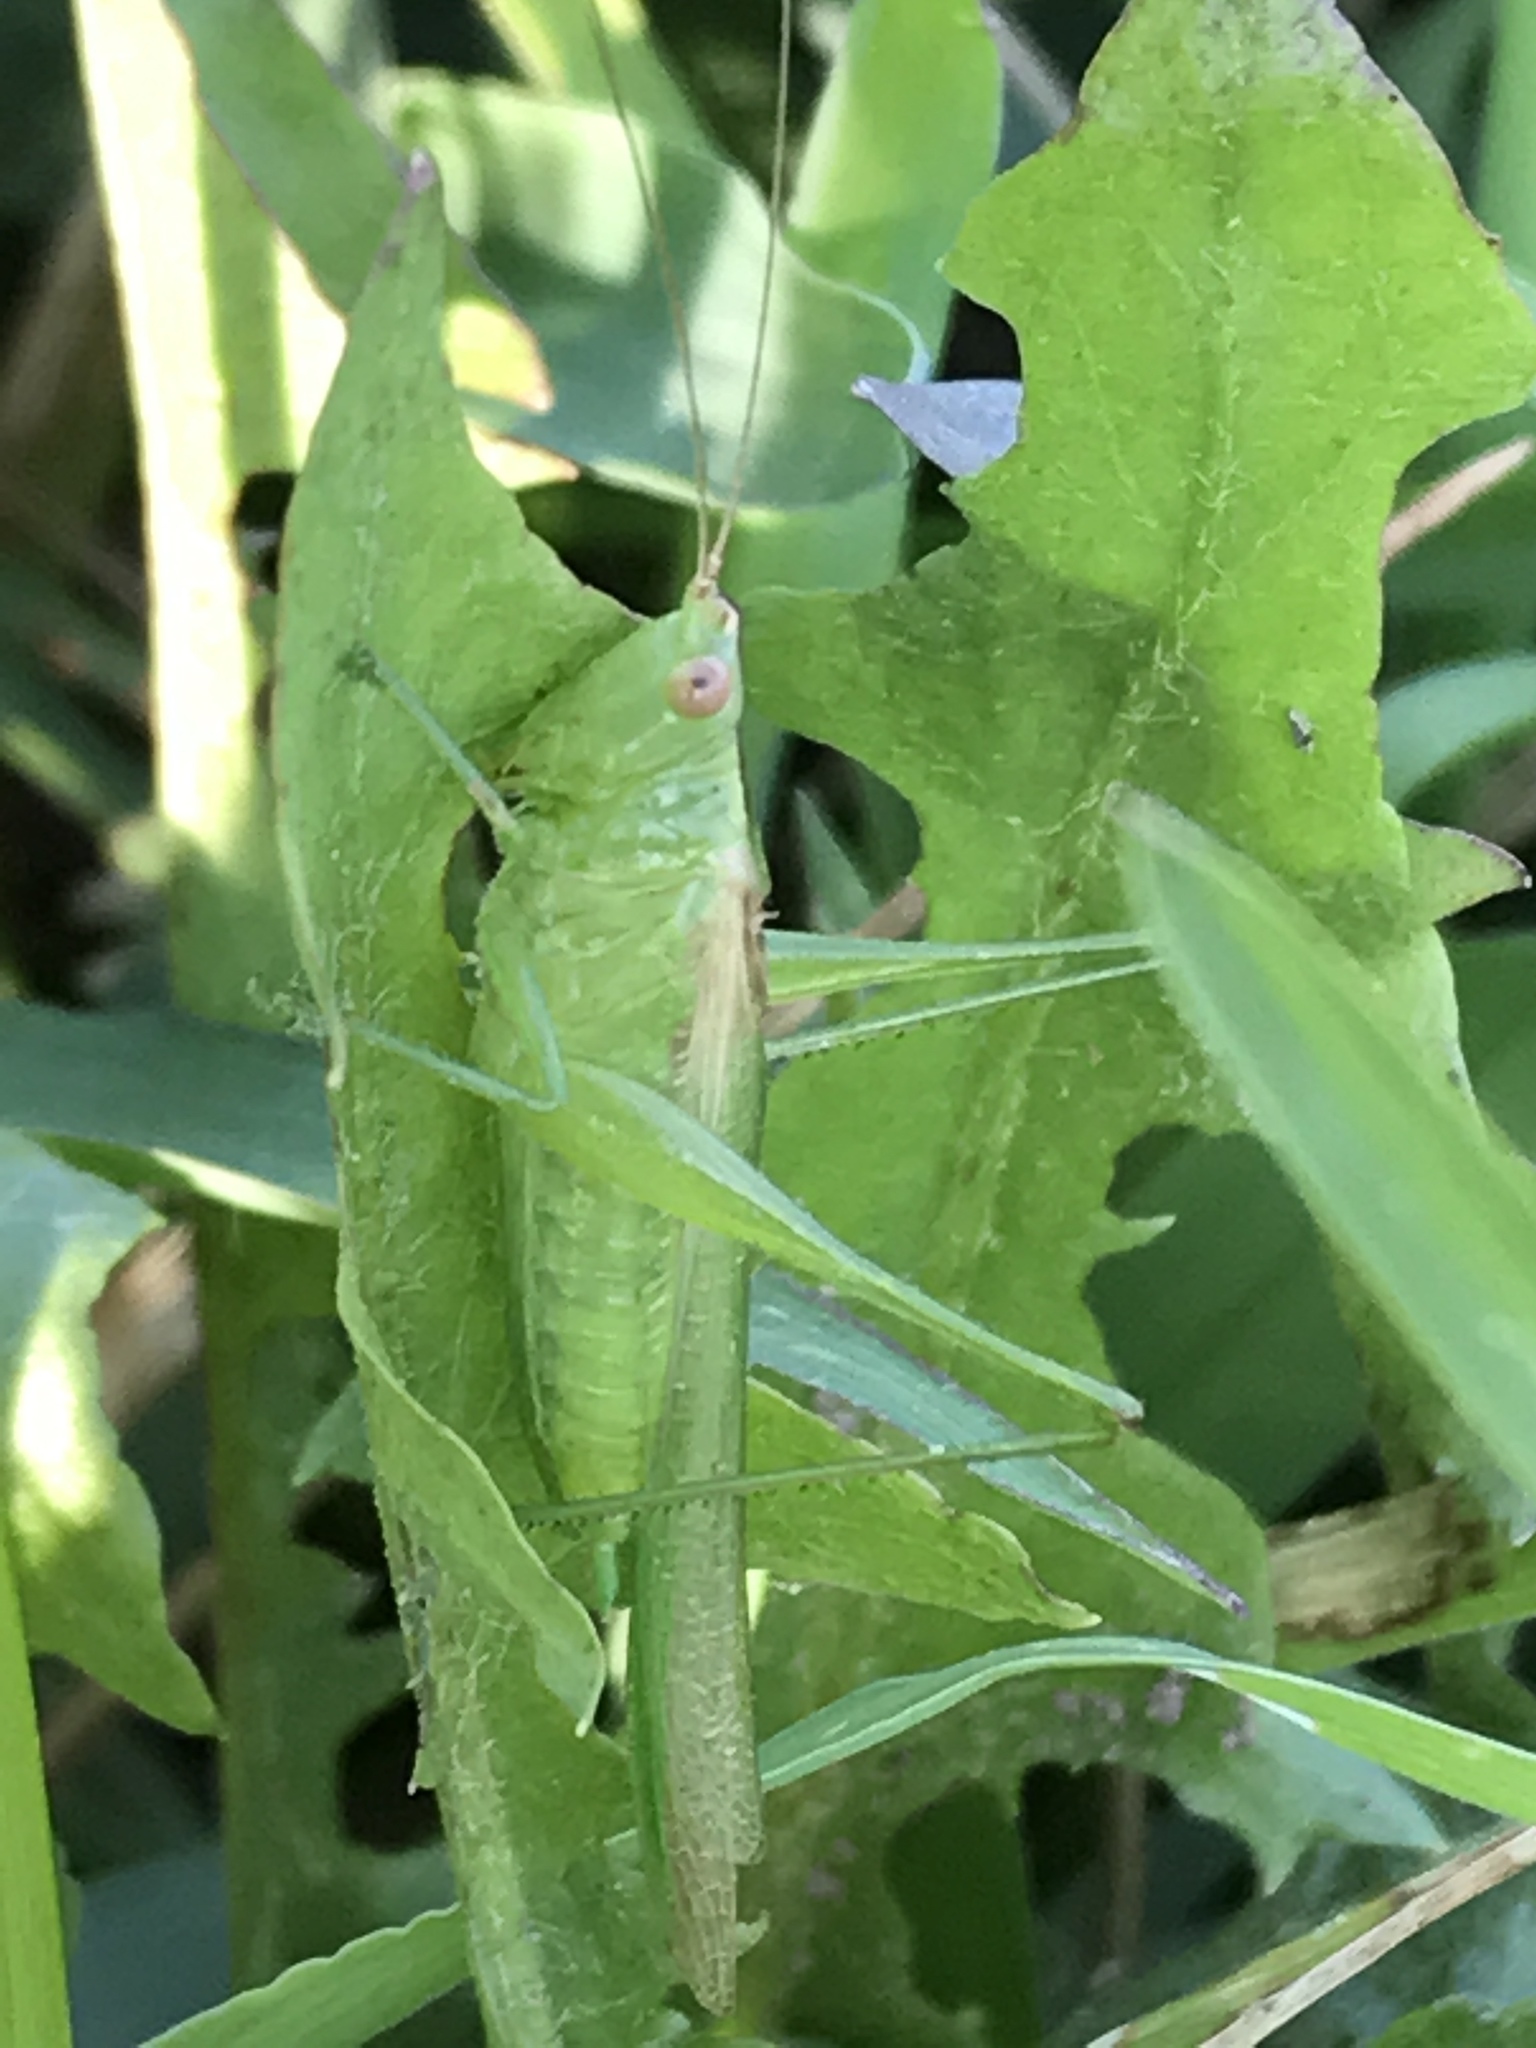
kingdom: Animalia
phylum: Arthropoda
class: Insecta
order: Orthoptera
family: Tettigoniidae
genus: Conocephalus
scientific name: Conocephalus fasciatus
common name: Slender meadow katydid
